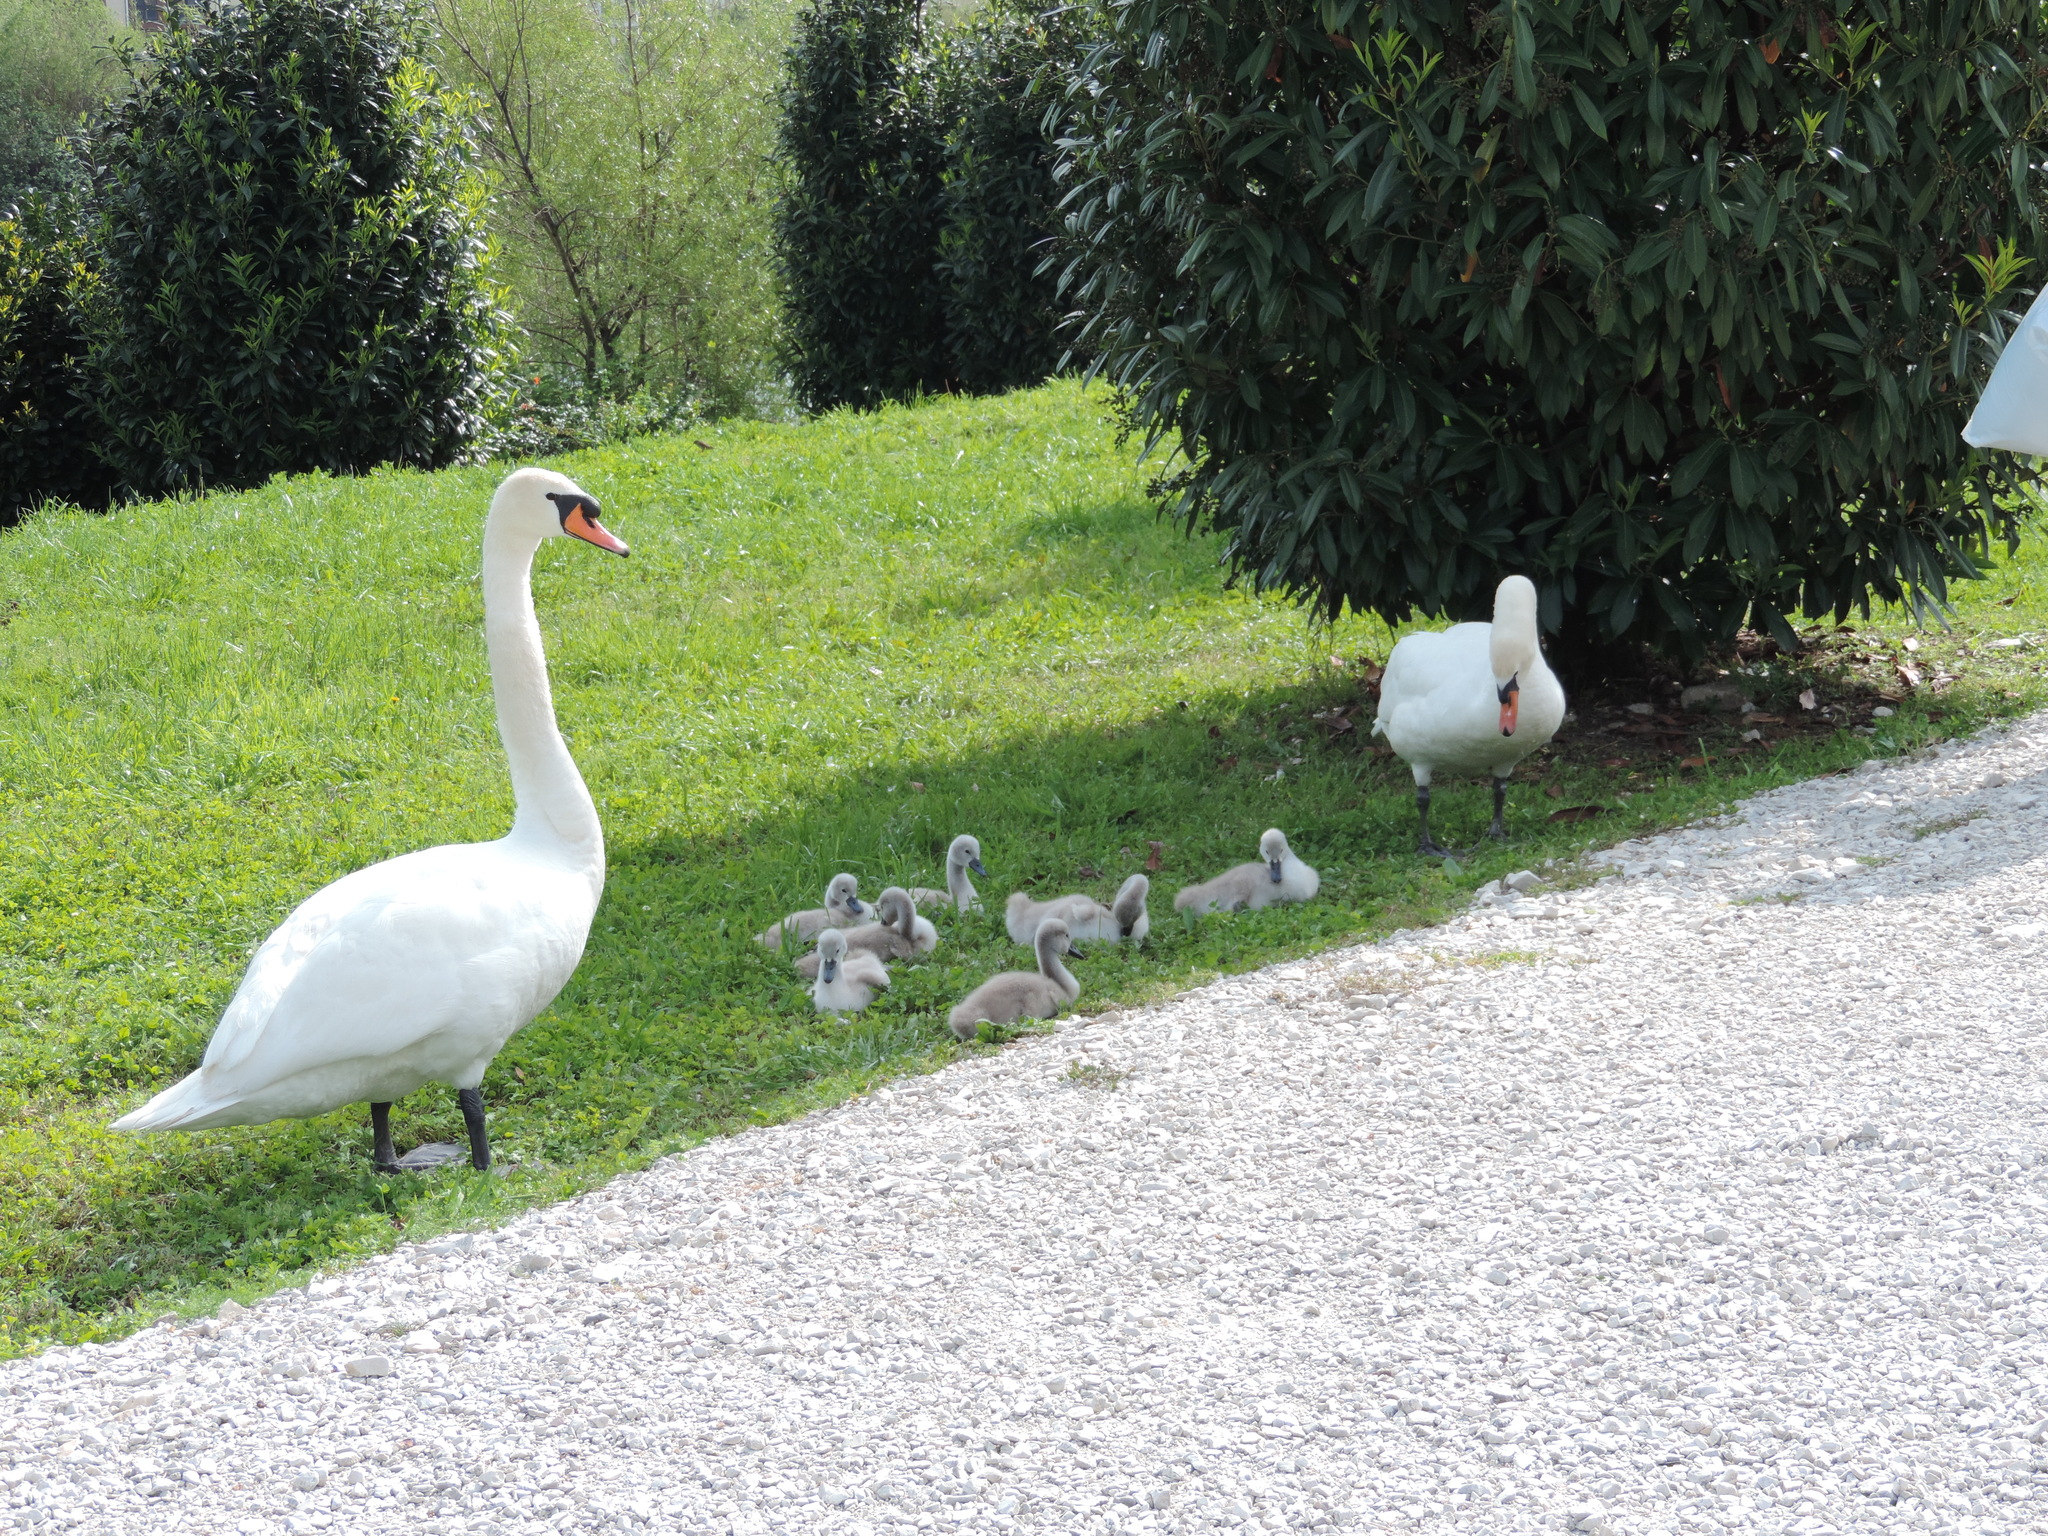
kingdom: Animalia
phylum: Chordata
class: Aves
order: Anseriformes
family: Anatidae
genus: Cygnus
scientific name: Cygnus olor
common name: Mute swan
